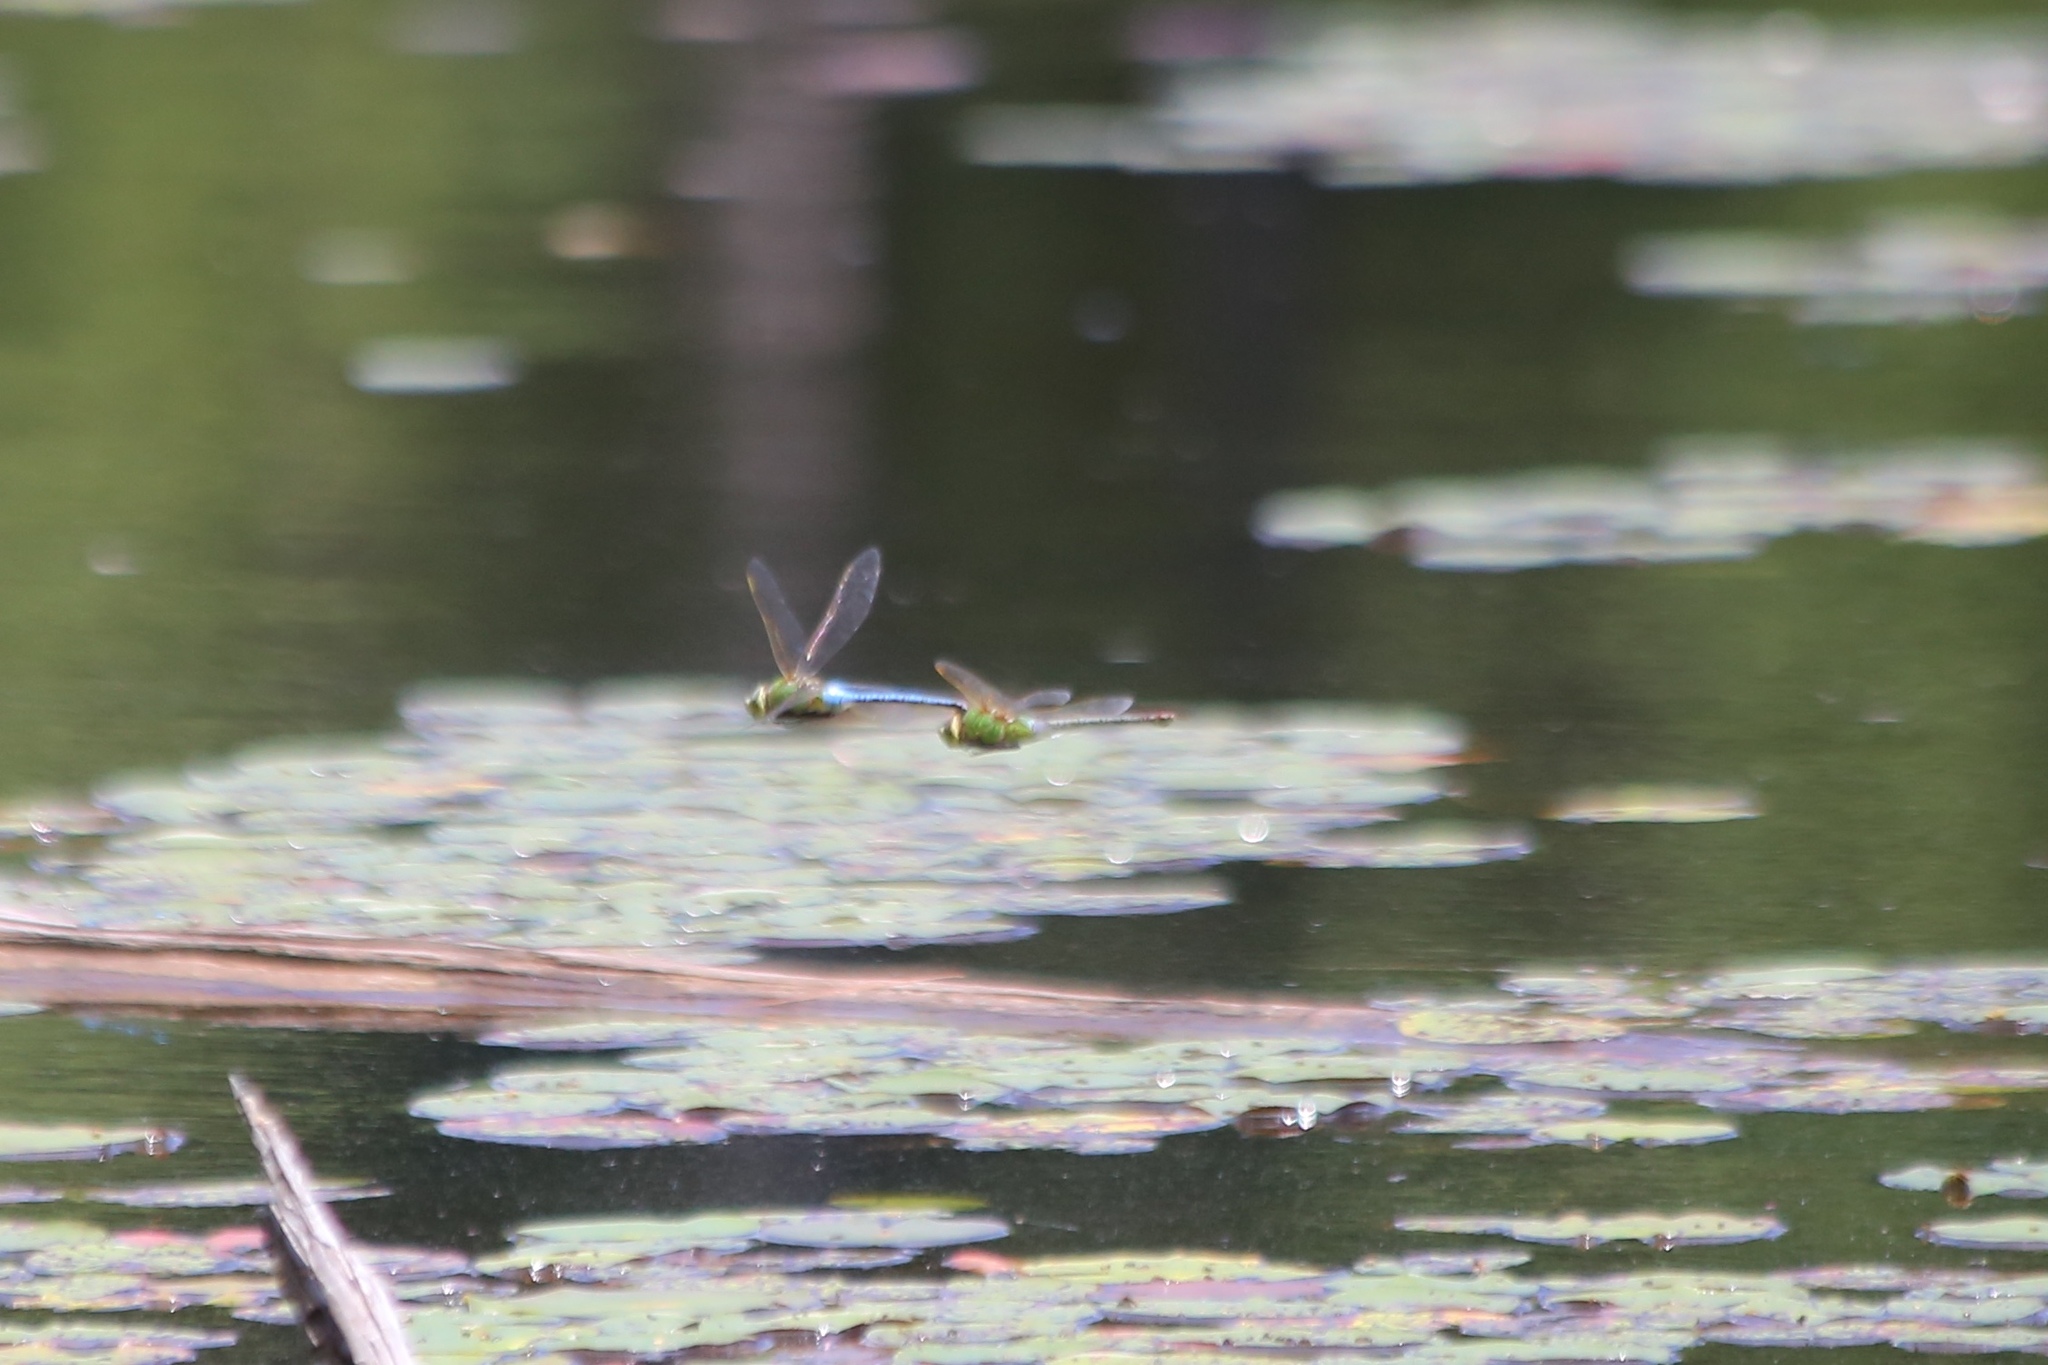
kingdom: Animalia
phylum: Arthropoda
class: Insecta
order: Odonata
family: Aeshnidae
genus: Anax
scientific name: Anax junius
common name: Common green darner
